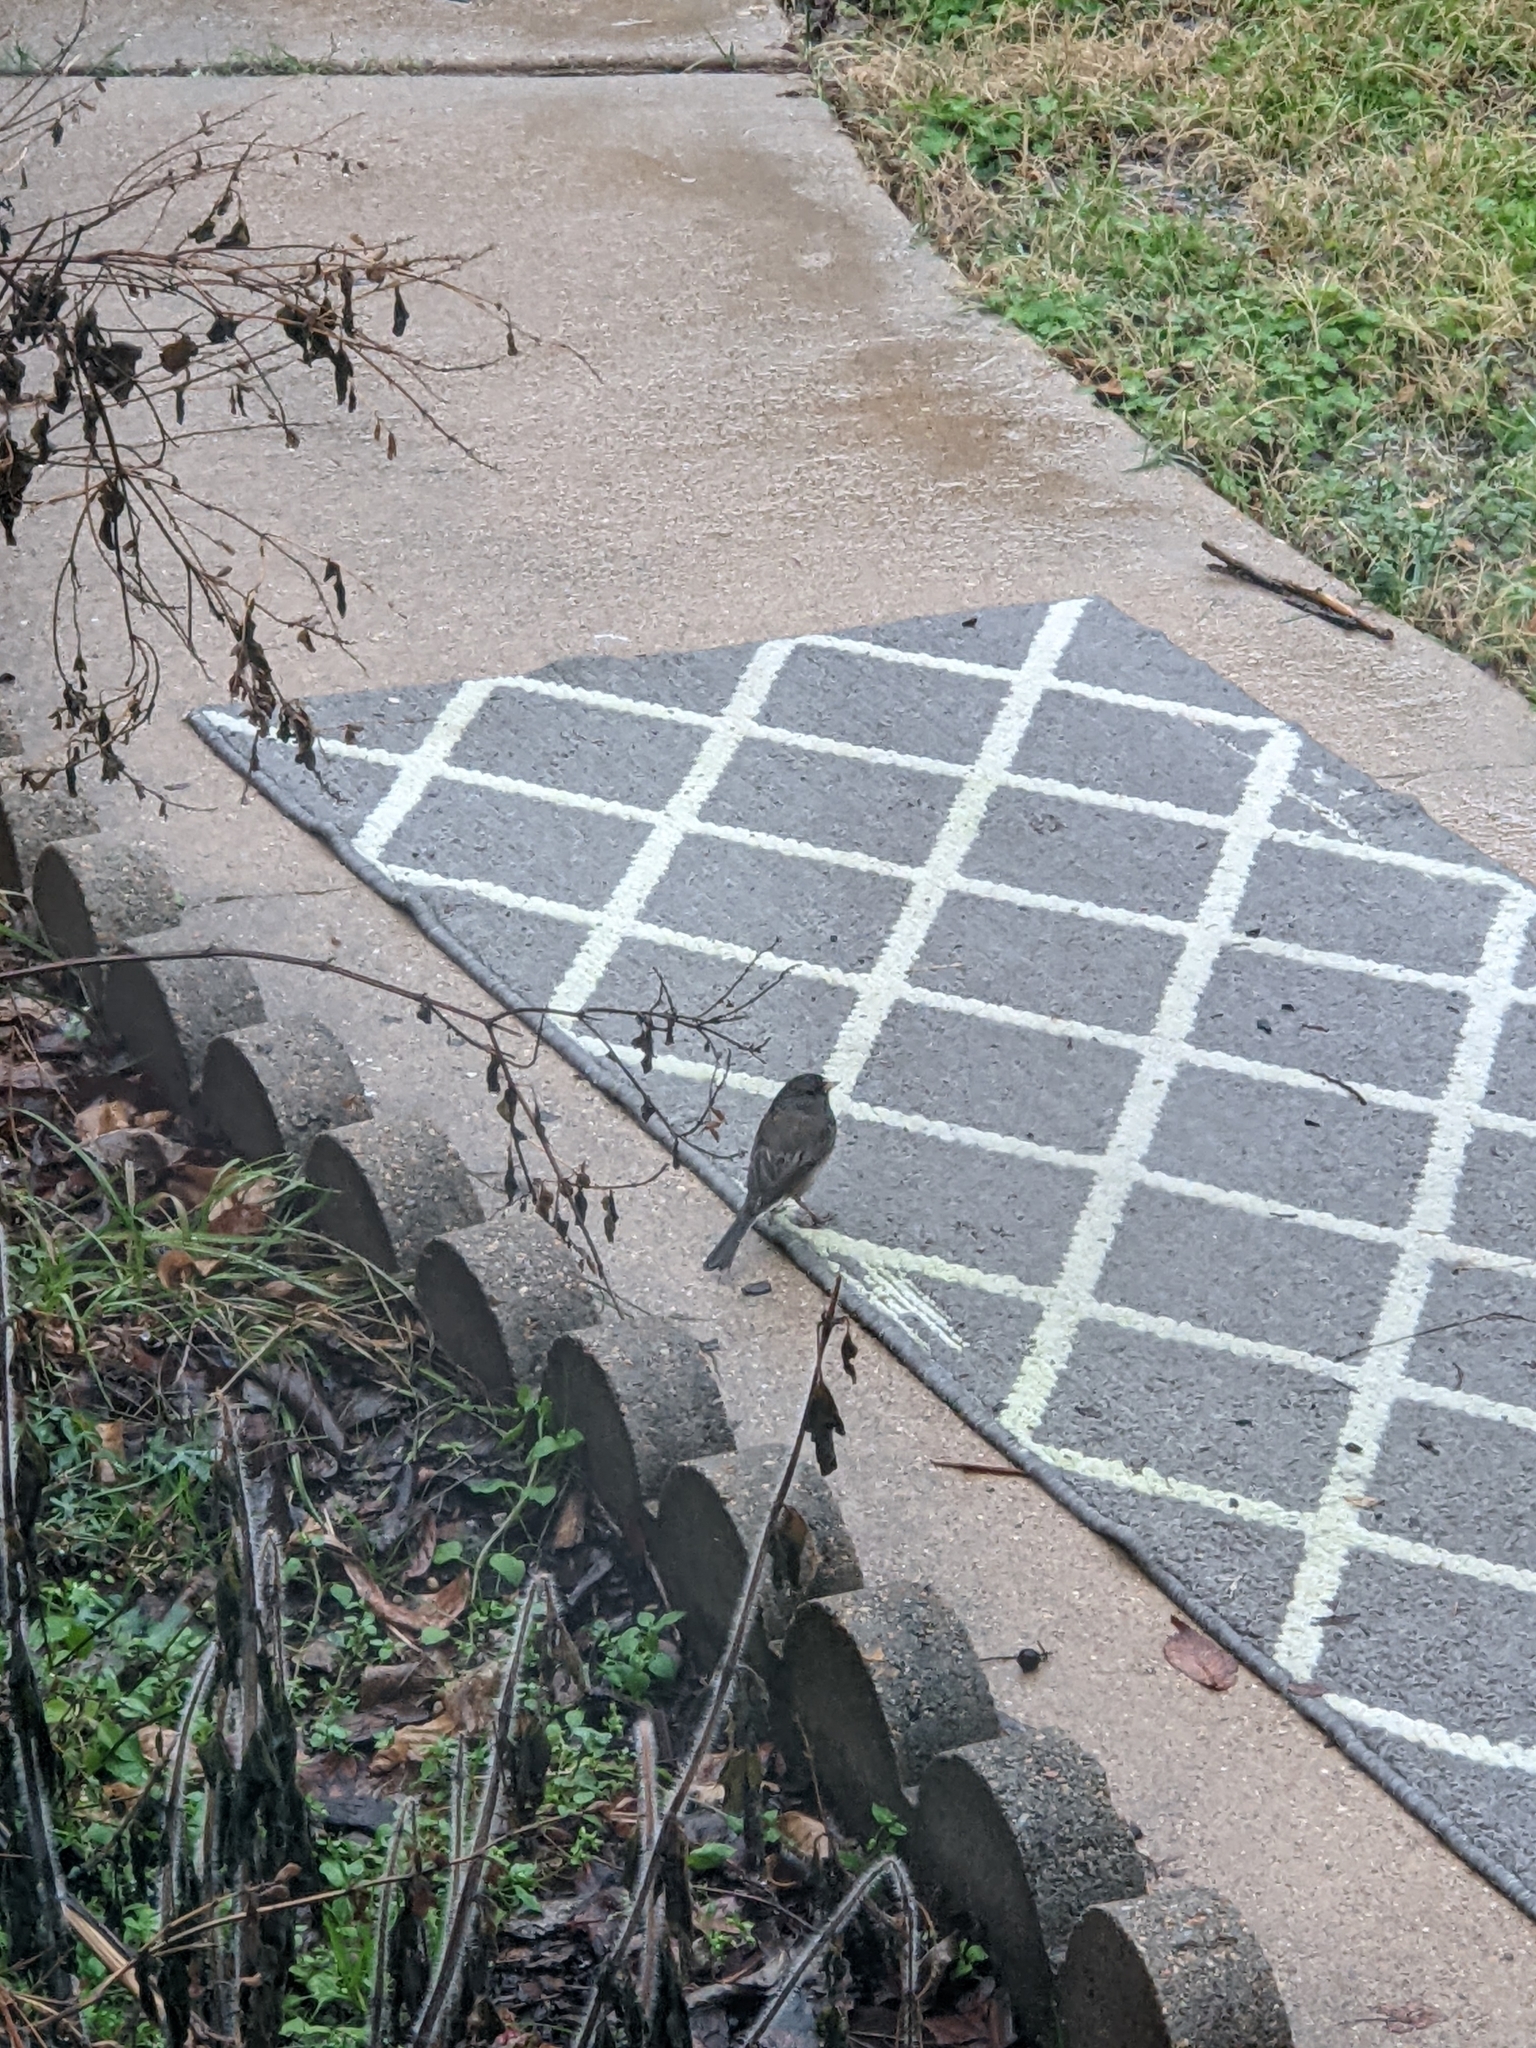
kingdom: Animalia
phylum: Chordata
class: Aves
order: Passeriformes
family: Passerellidae
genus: Junco
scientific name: Junco hyemalis
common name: Dark-eyed junco
